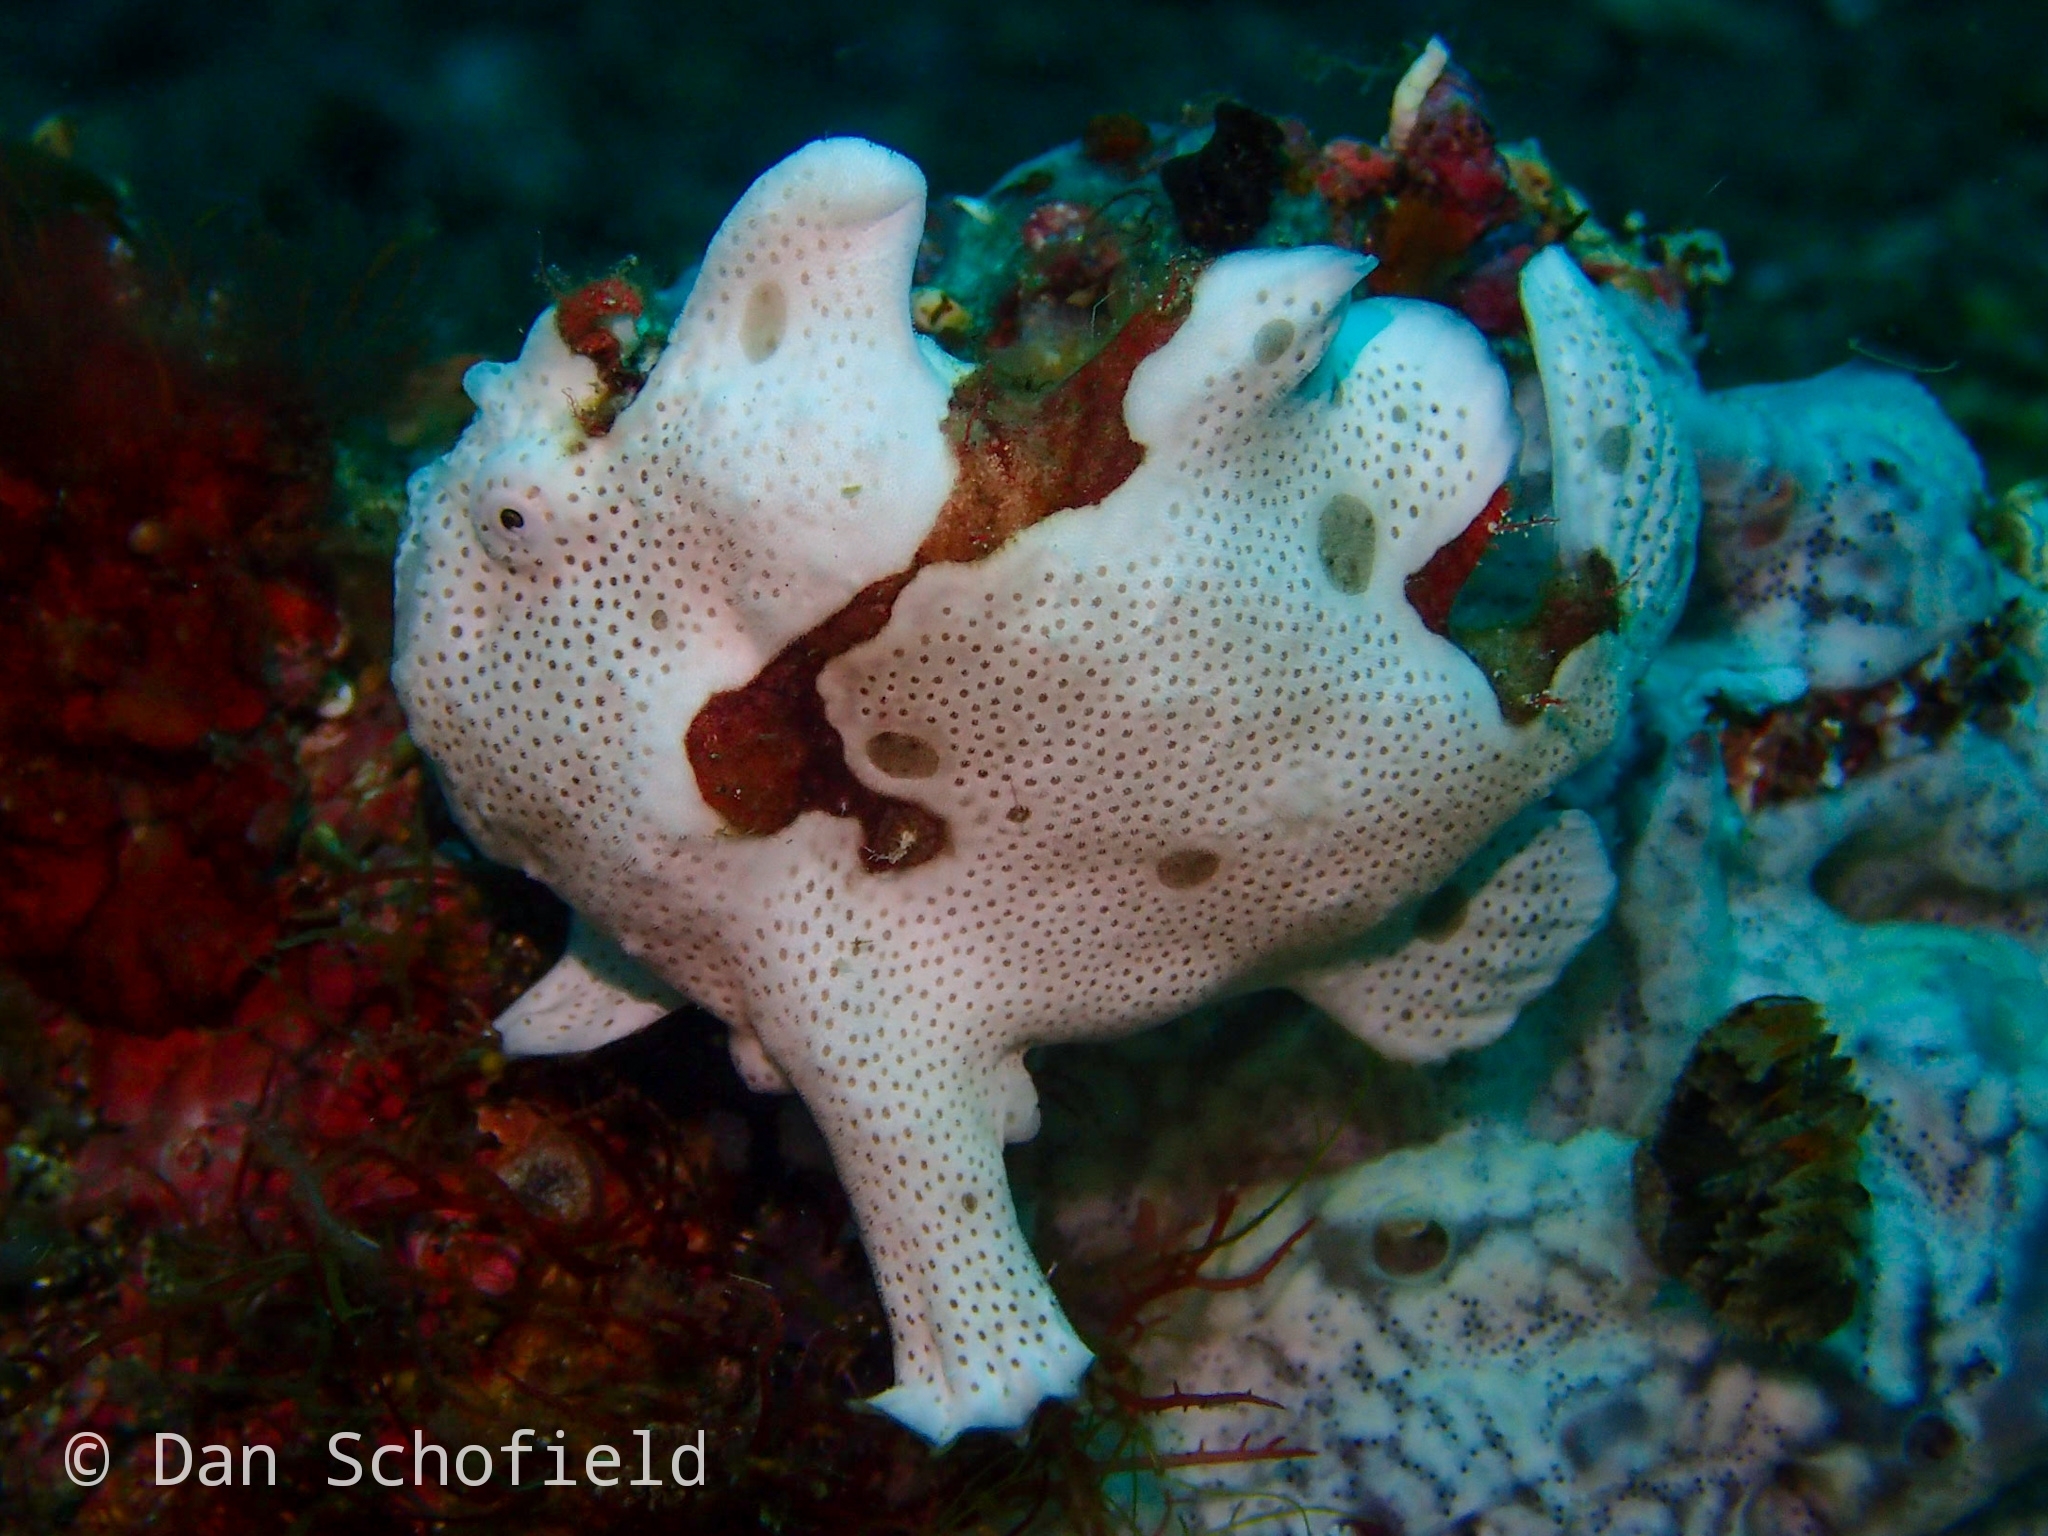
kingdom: Animalia
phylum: Chordata
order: Lophiiformes
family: Antennariidae
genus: Antennarius
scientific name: Antennarius maculatus
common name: Warty frogfish
